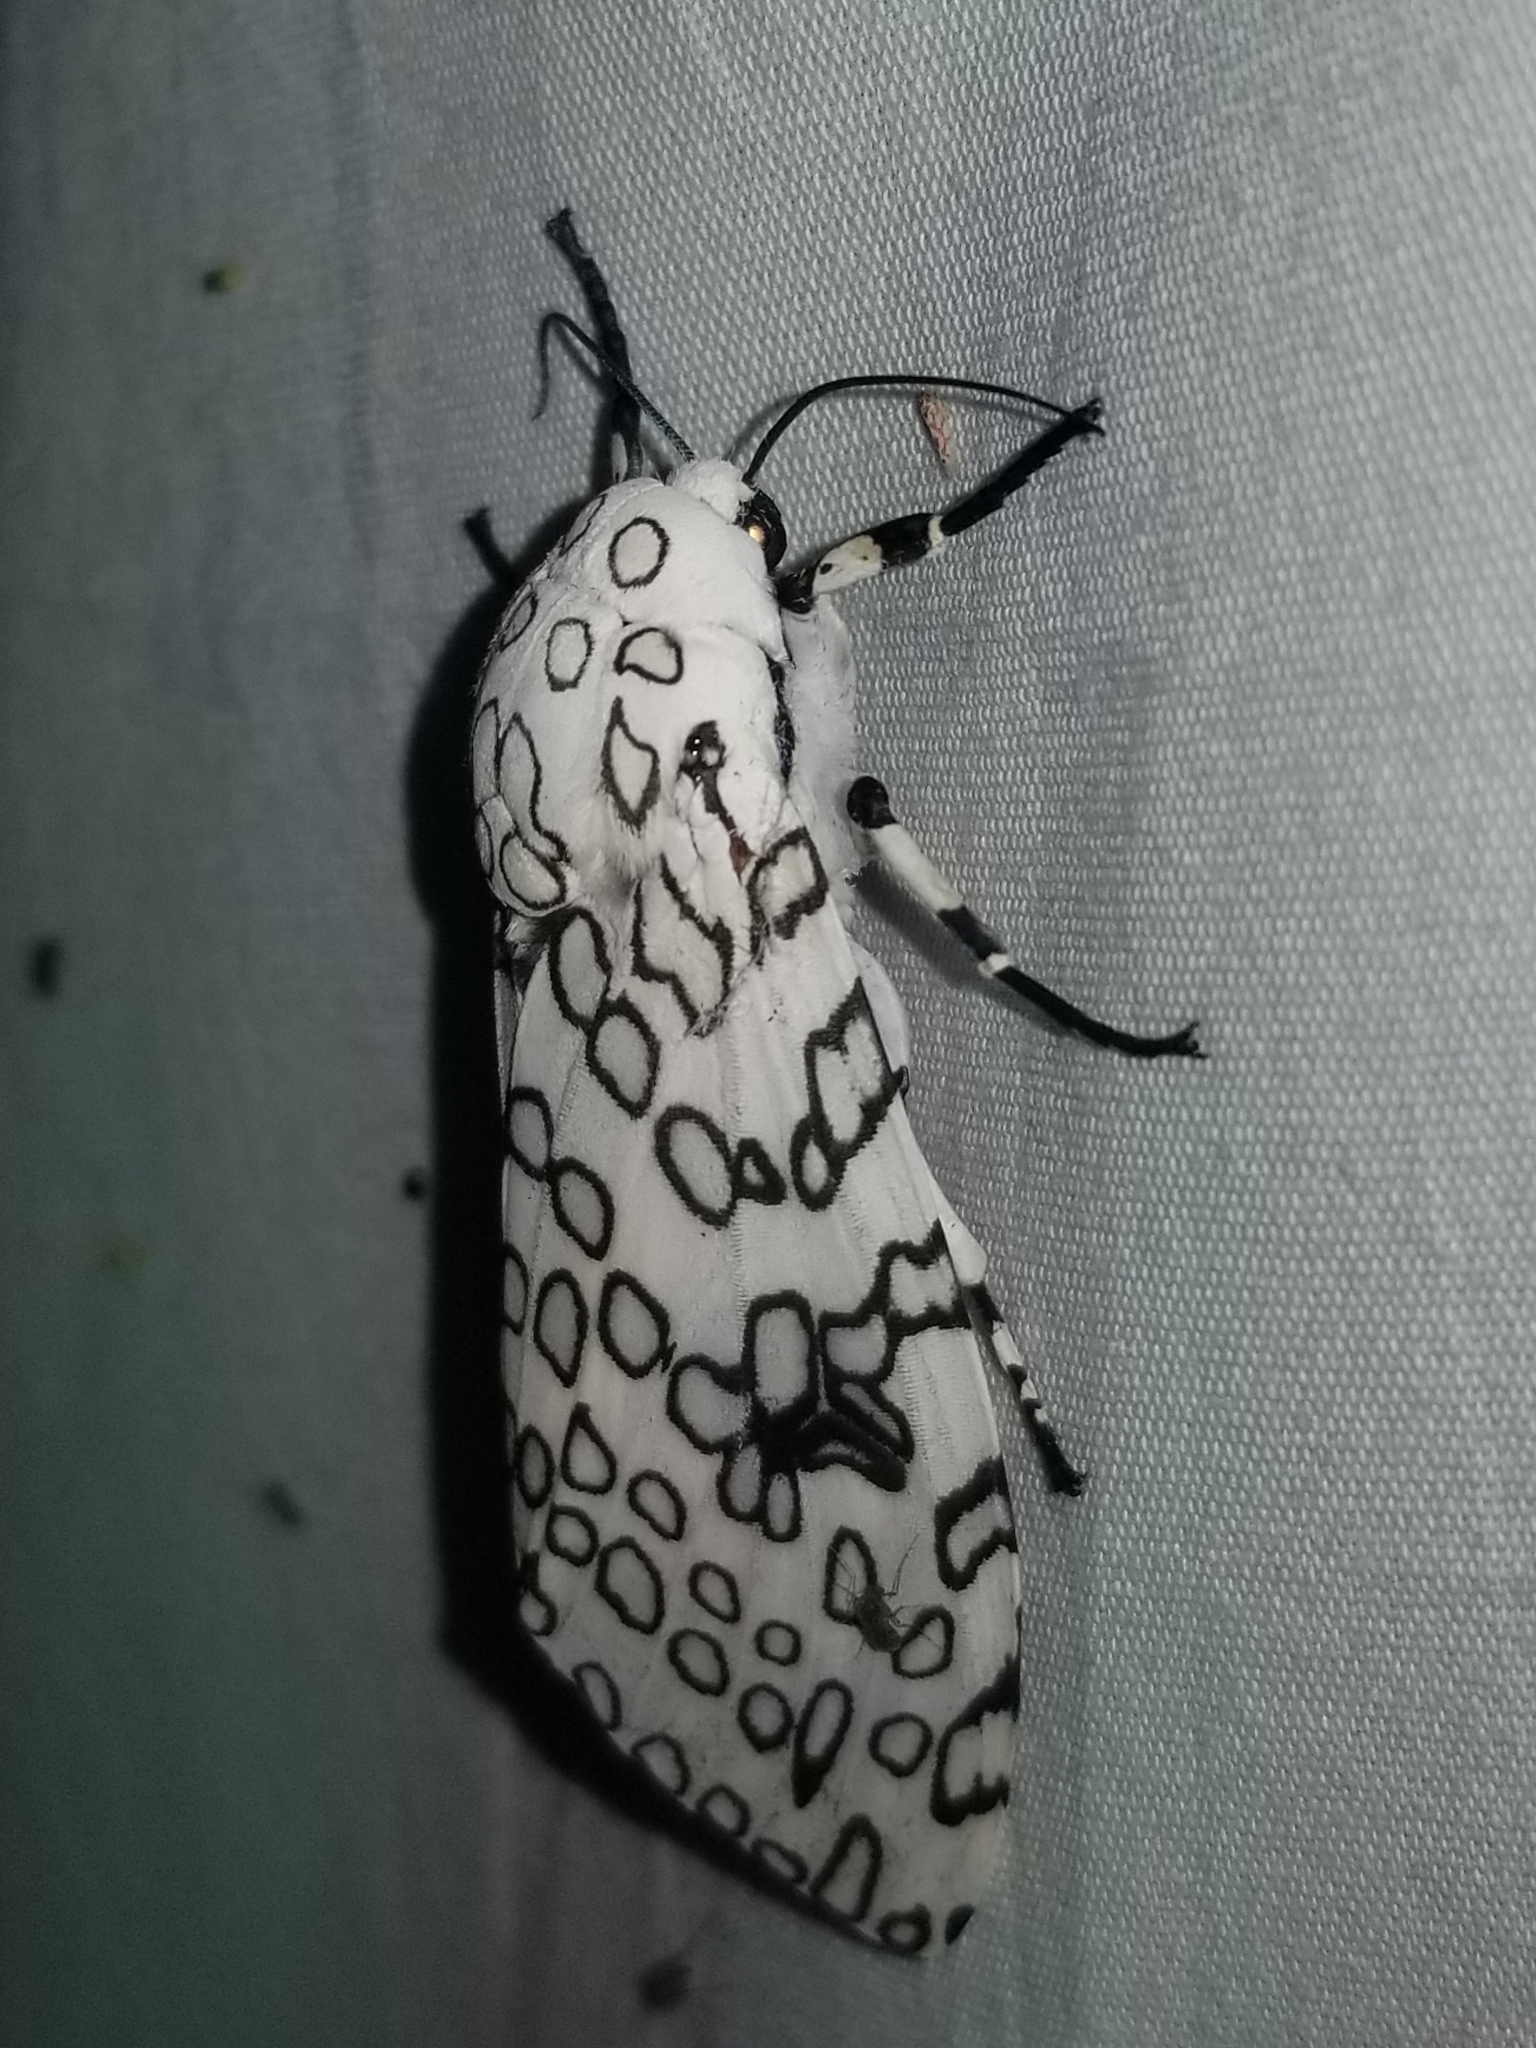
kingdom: Animalia
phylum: Arthropoda
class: Insecta
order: Lepidoptera
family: Erebidae
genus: Hypercompe
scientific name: Hypercompe scribonia
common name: Giant leopard moth
